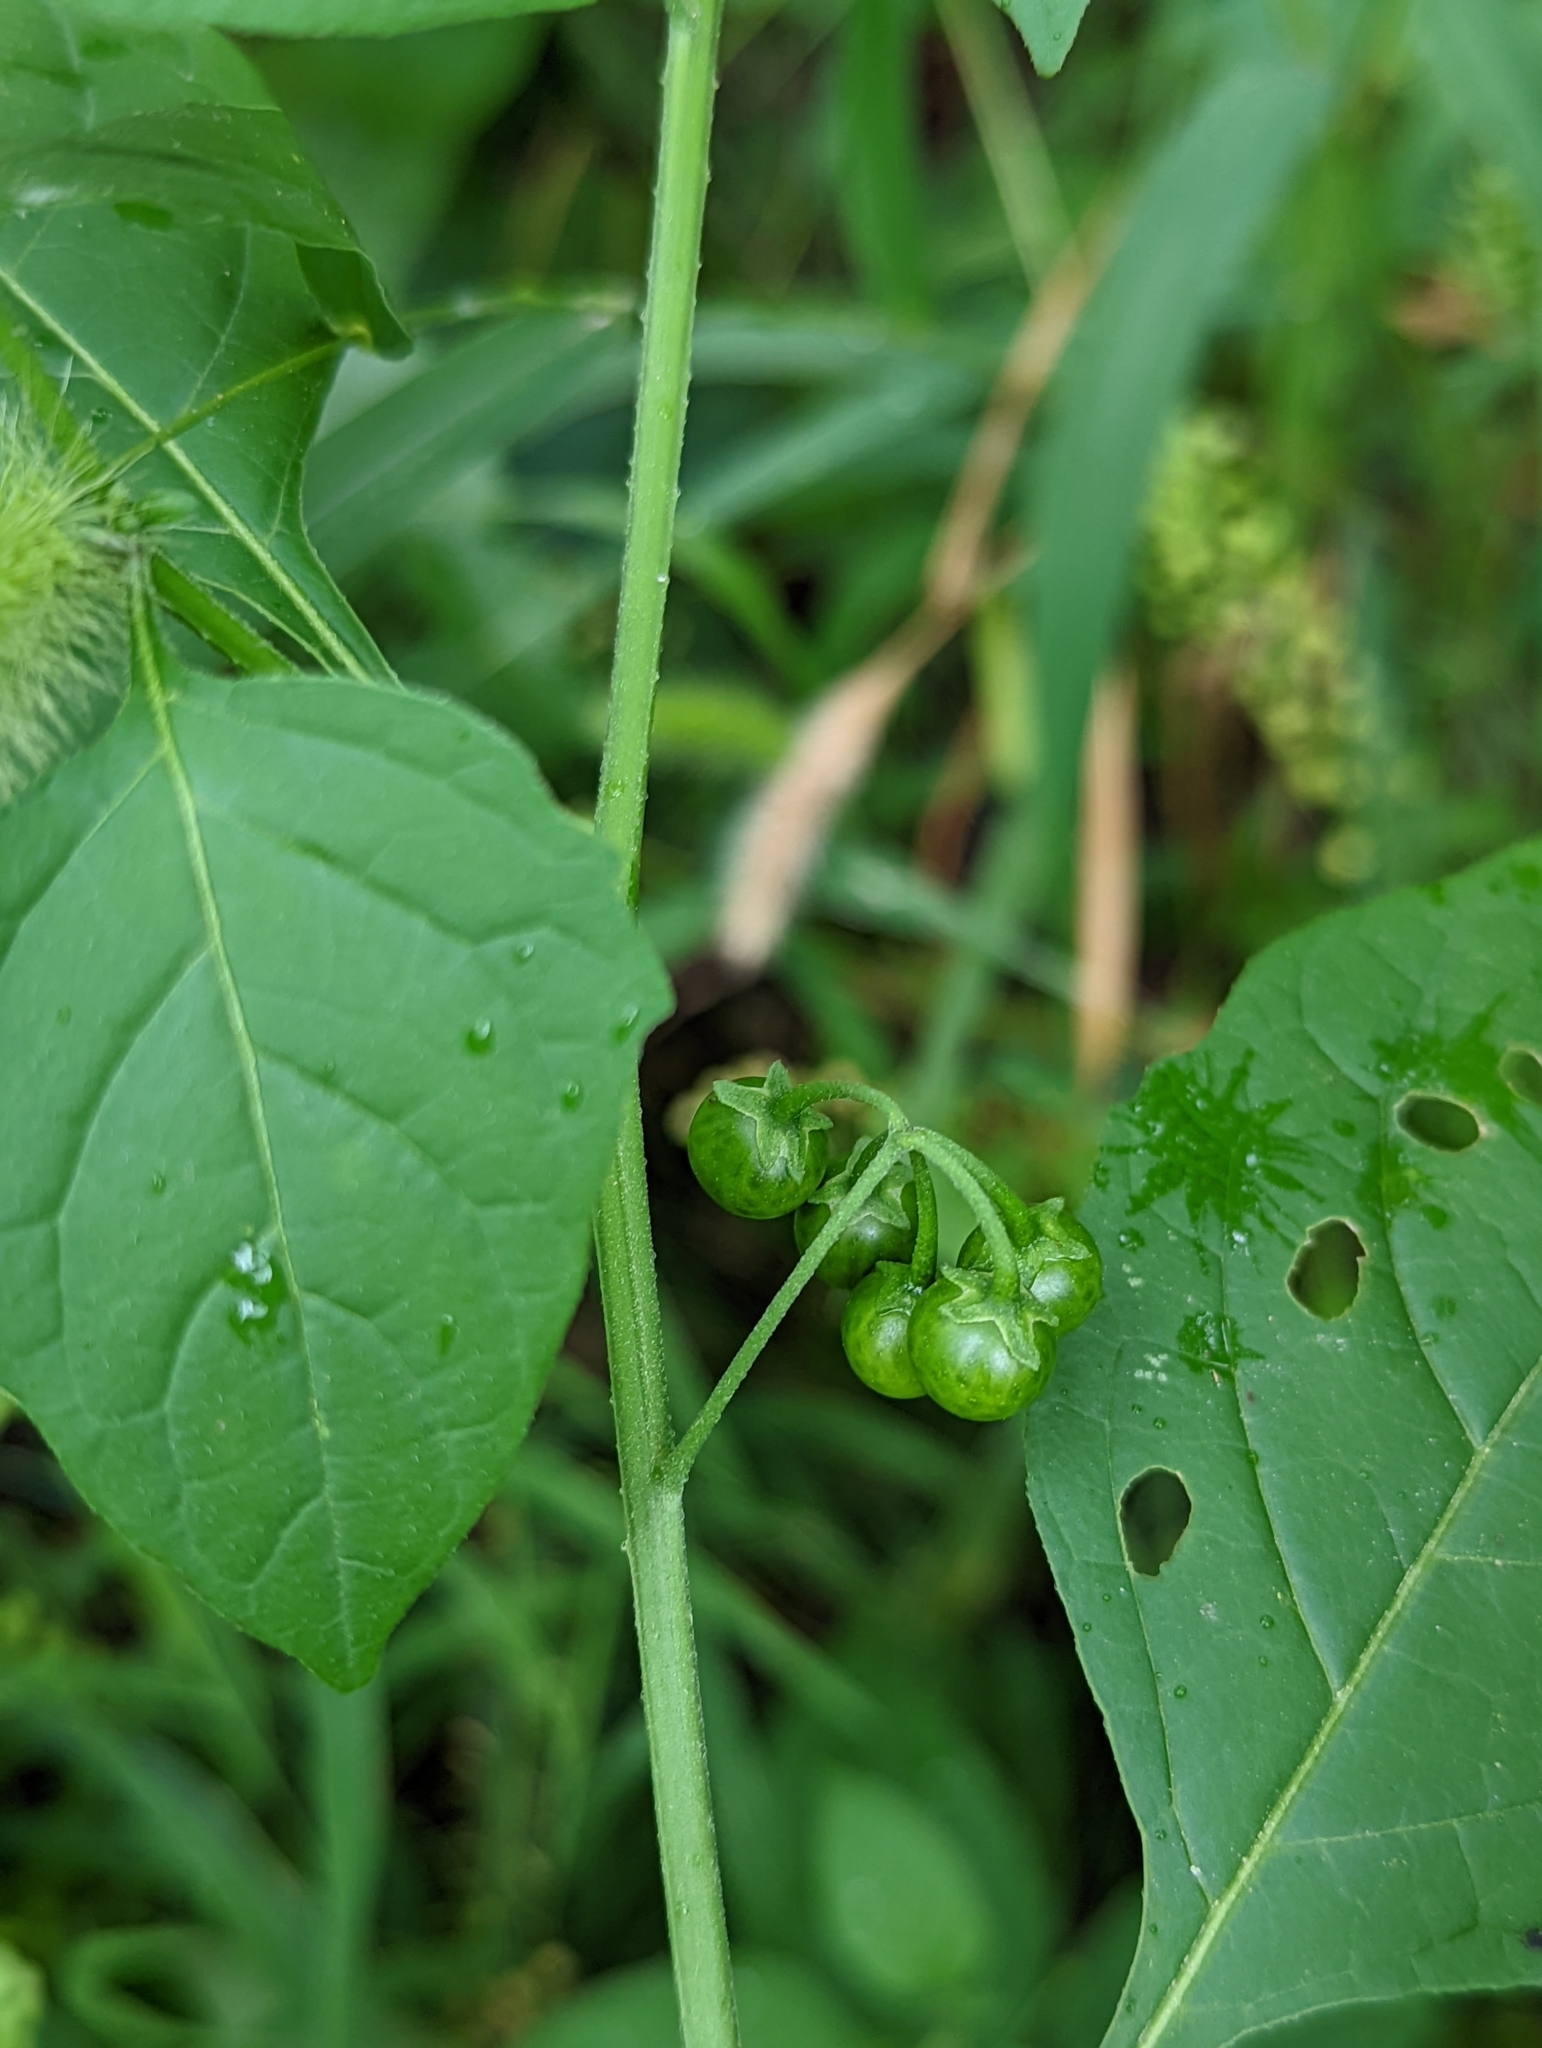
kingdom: Plantae
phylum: Tracheophyta
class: Magnoliopsida
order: Solanales
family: Solanaceae
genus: Solanum
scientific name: Solanum emulans
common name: Eastern black nightshade
